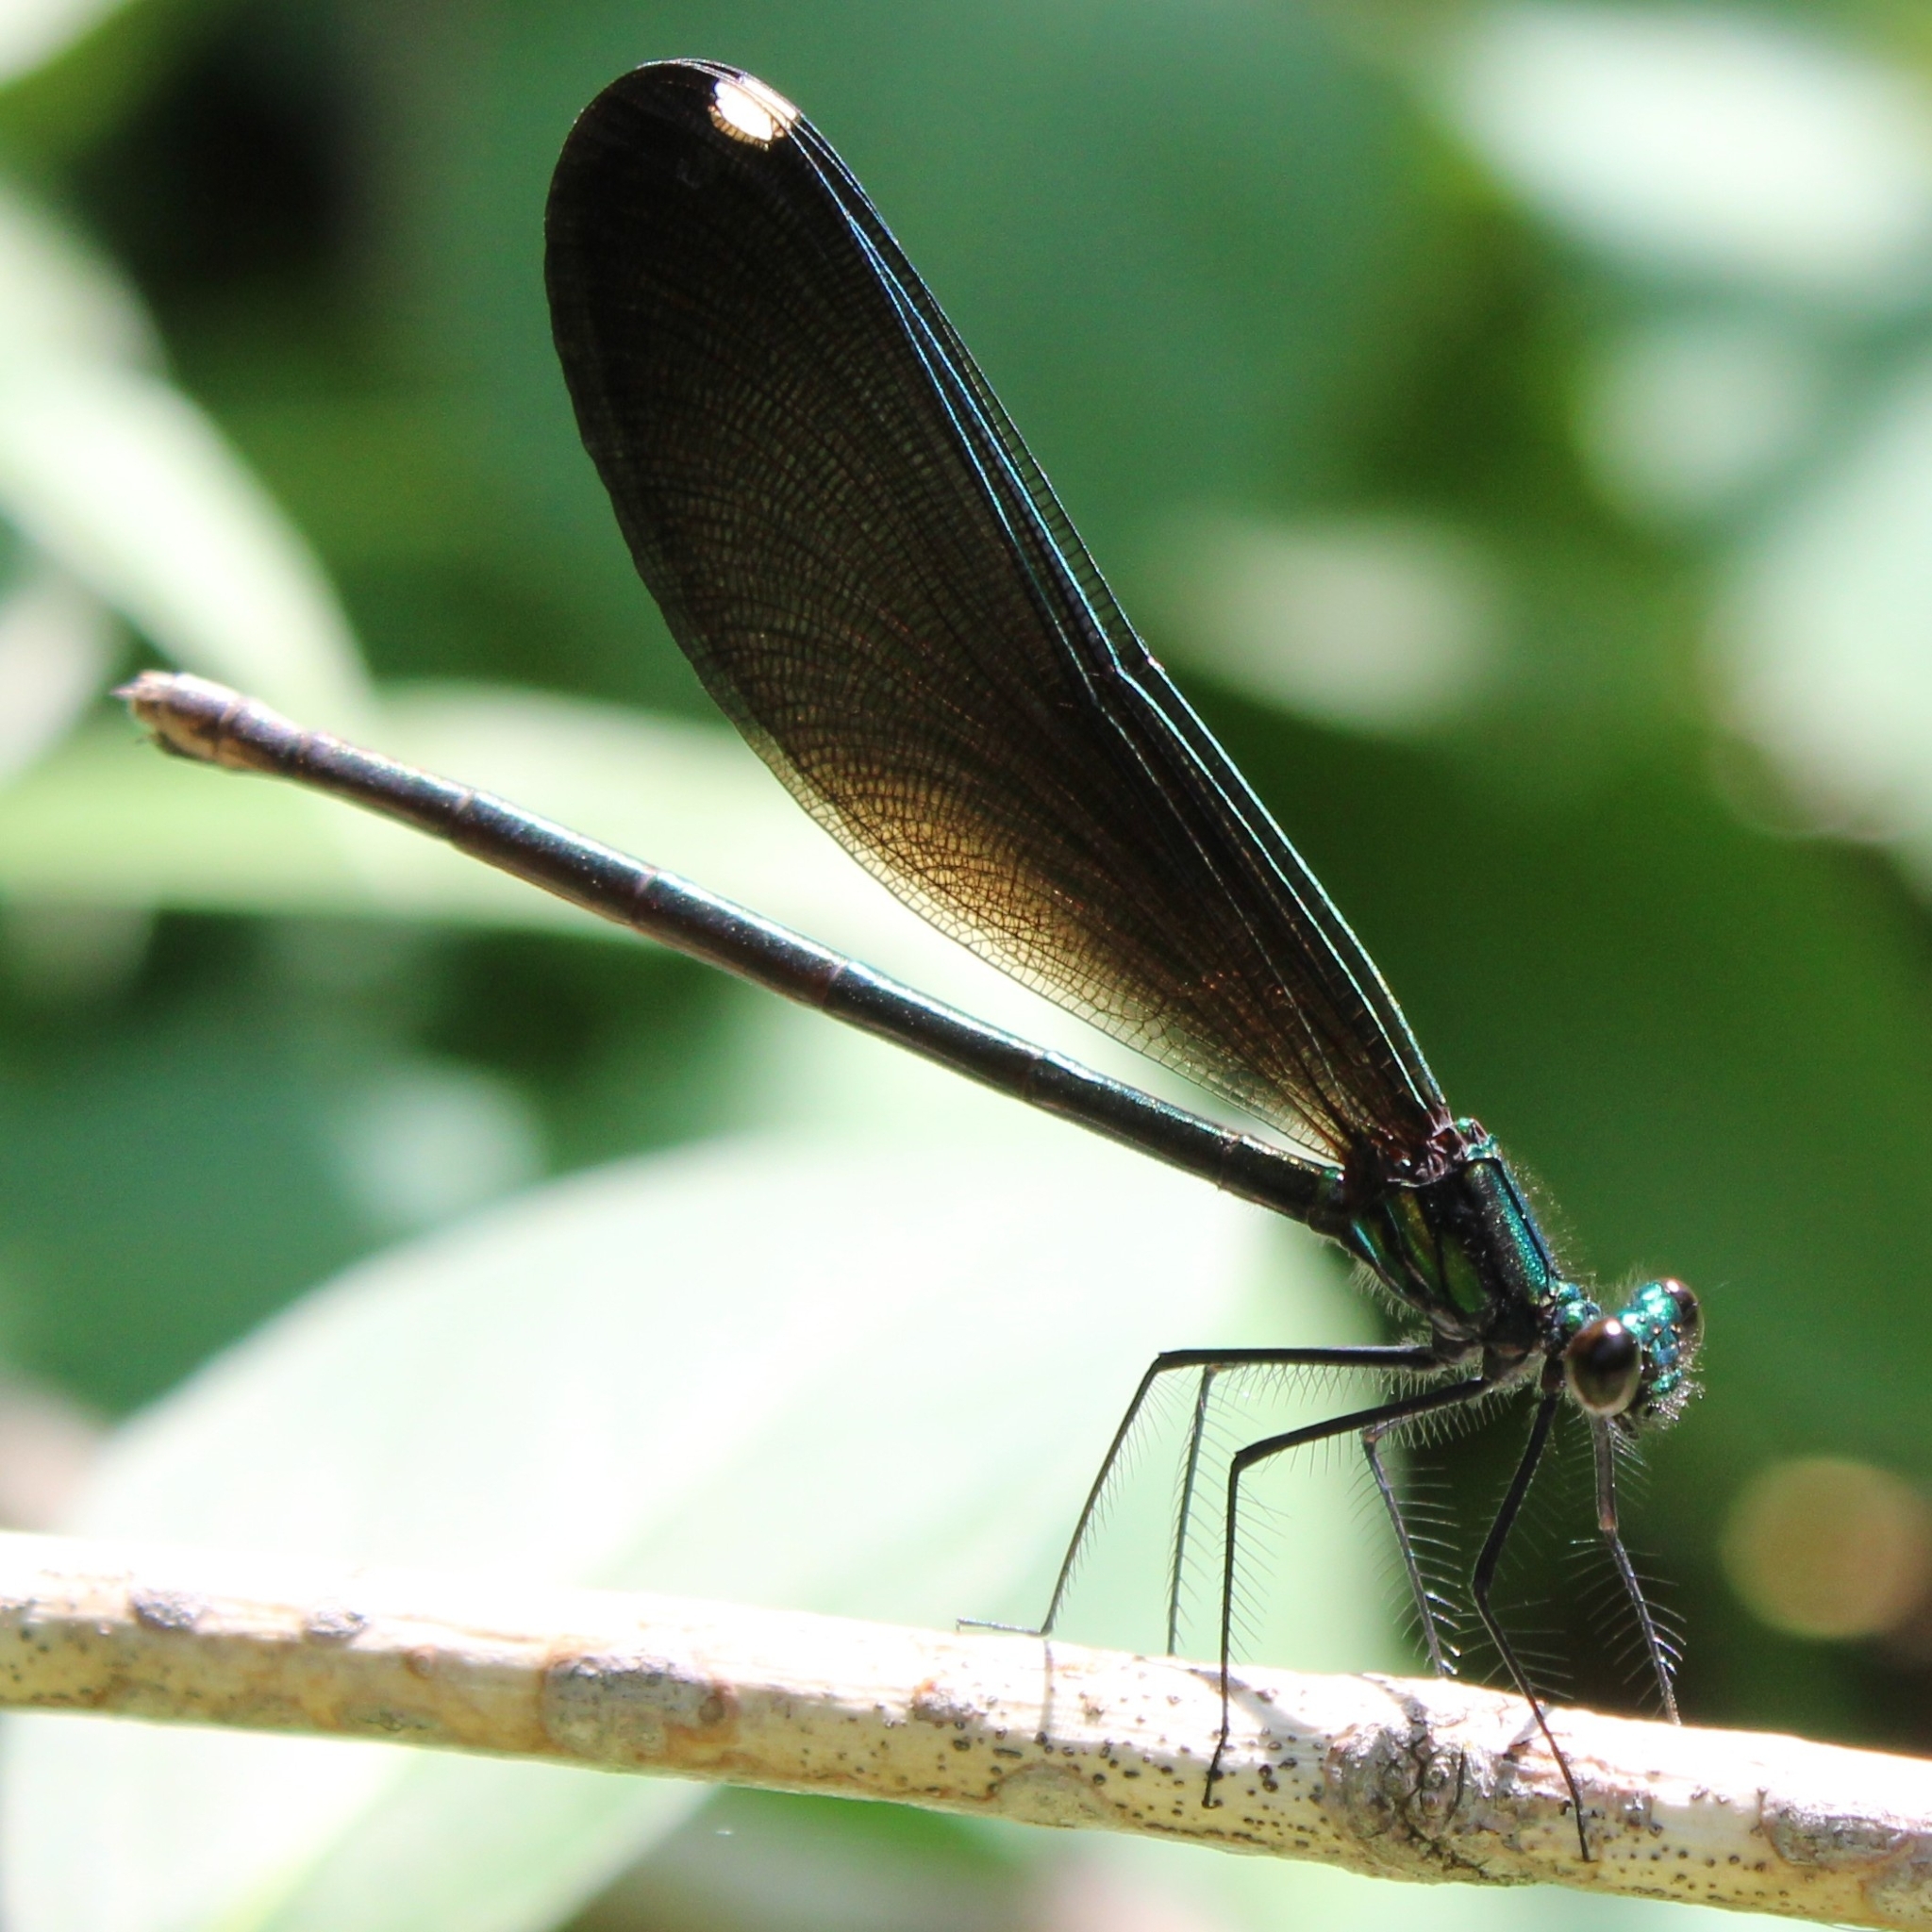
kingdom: Animalia
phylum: Arthropoda
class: Insecta
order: Odonata
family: Calopterygidae
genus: Calopteryx
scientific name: Calopteryx maculata
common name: Ebony jewelwing
